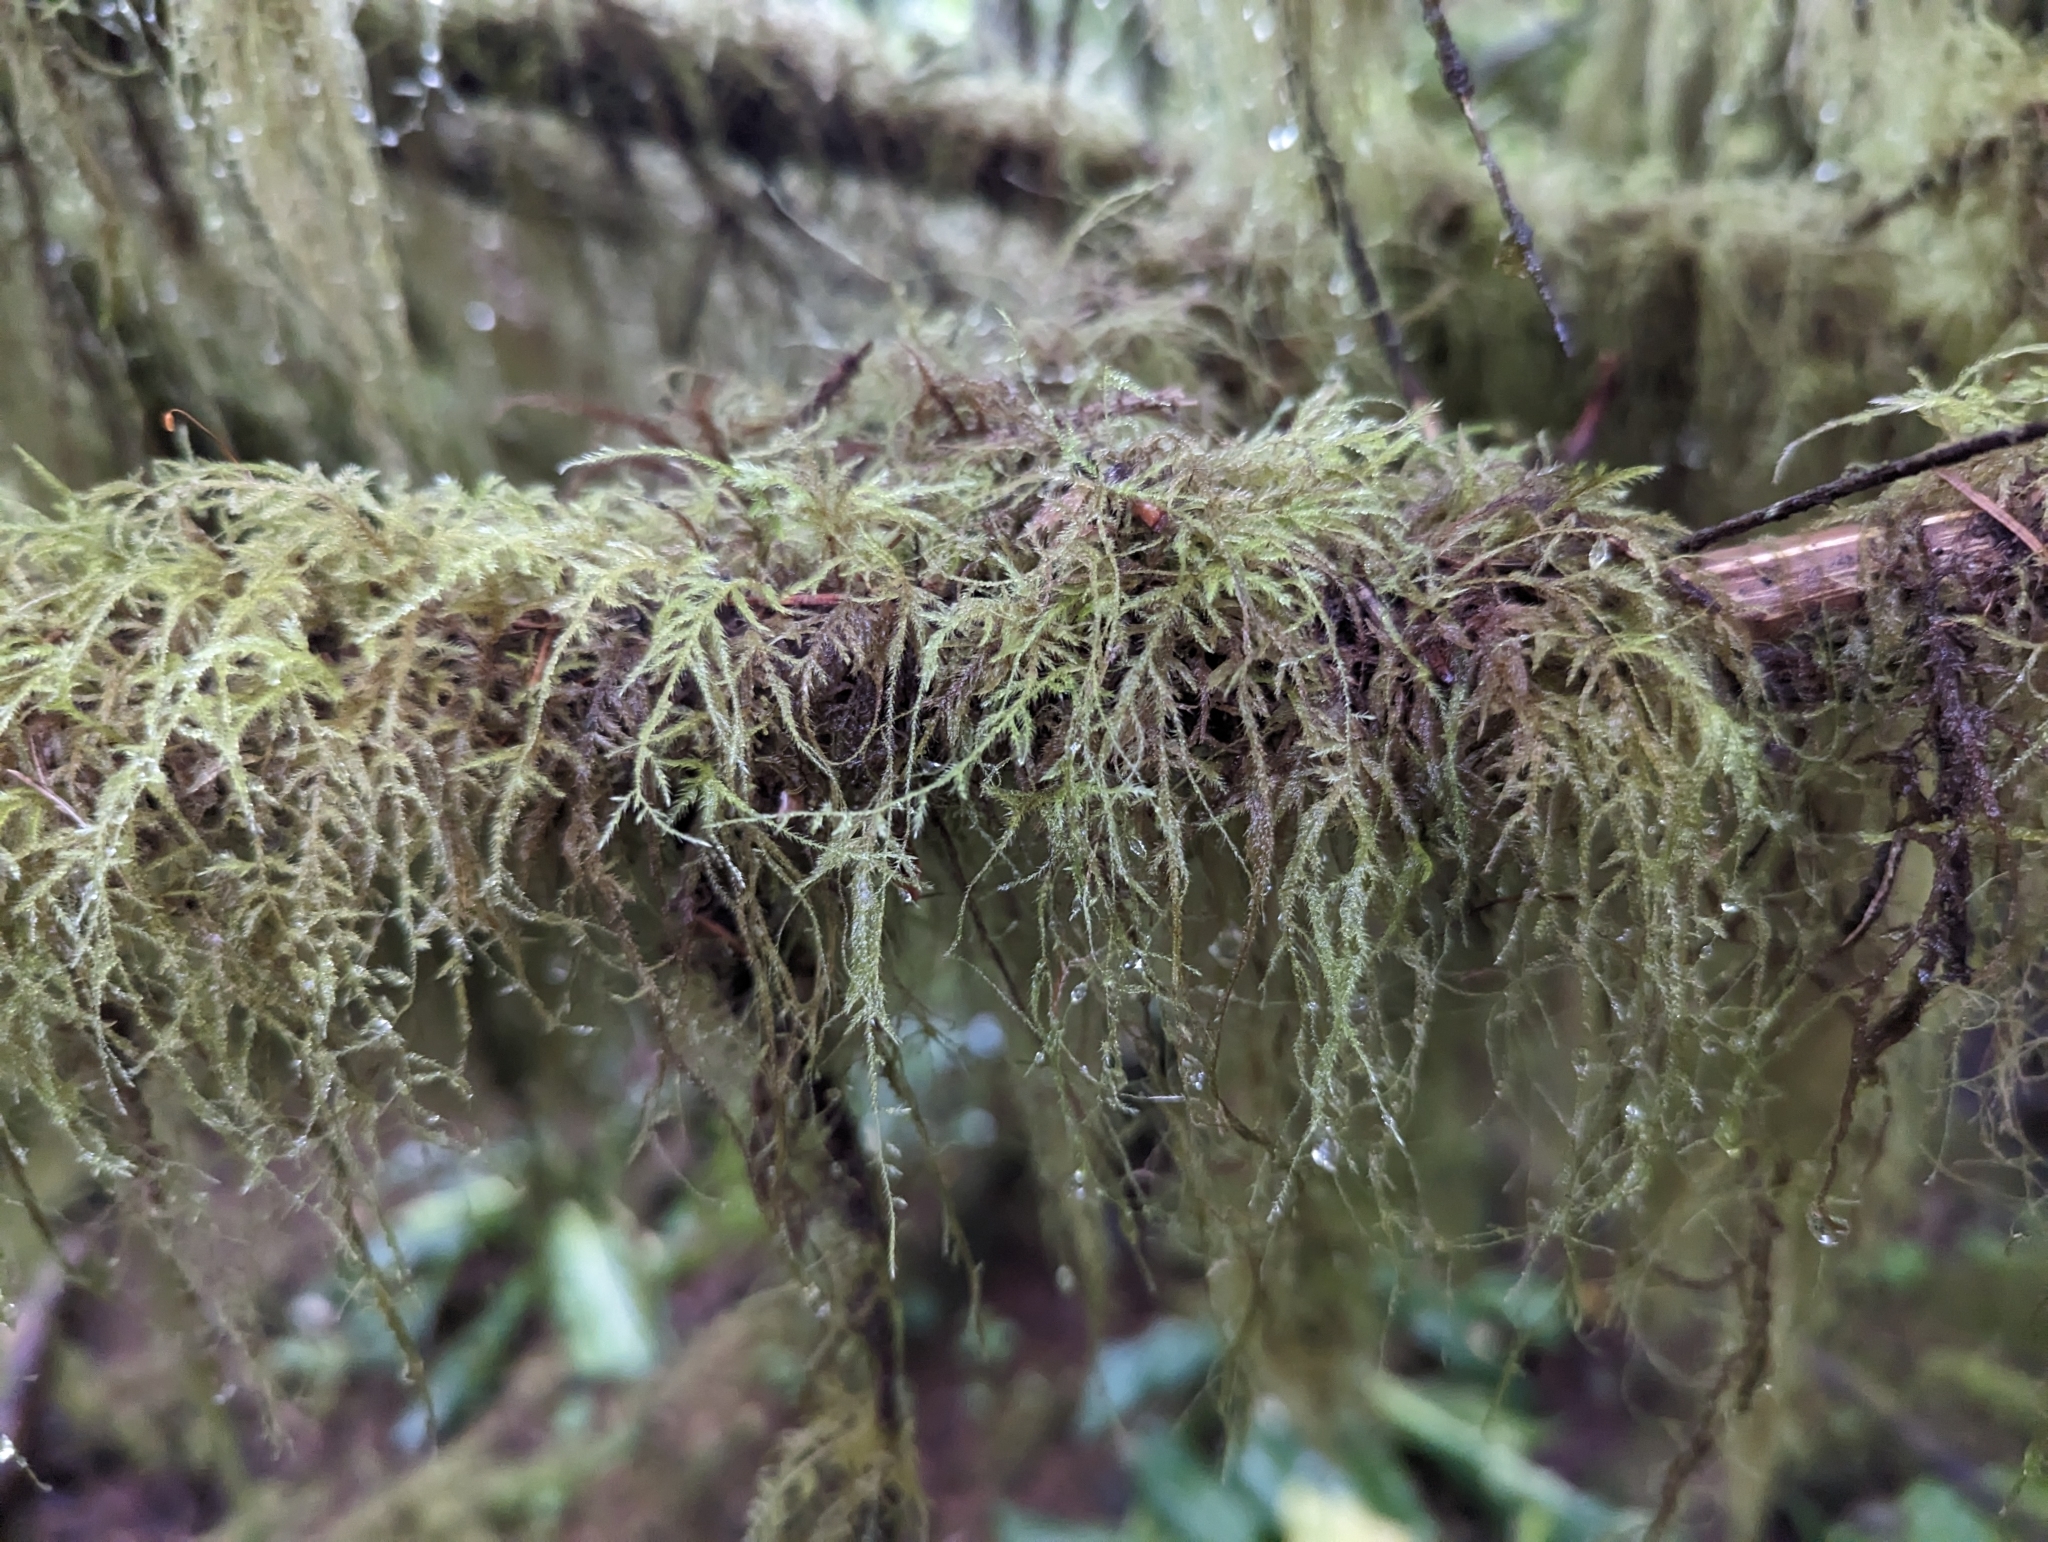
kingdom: Plantae
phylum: Bryophyta
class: Bryopsida
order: Hypnales
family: Lembophyllaceae
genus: Pseudisothecium
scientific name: Pseudisothecium stoloniferum
